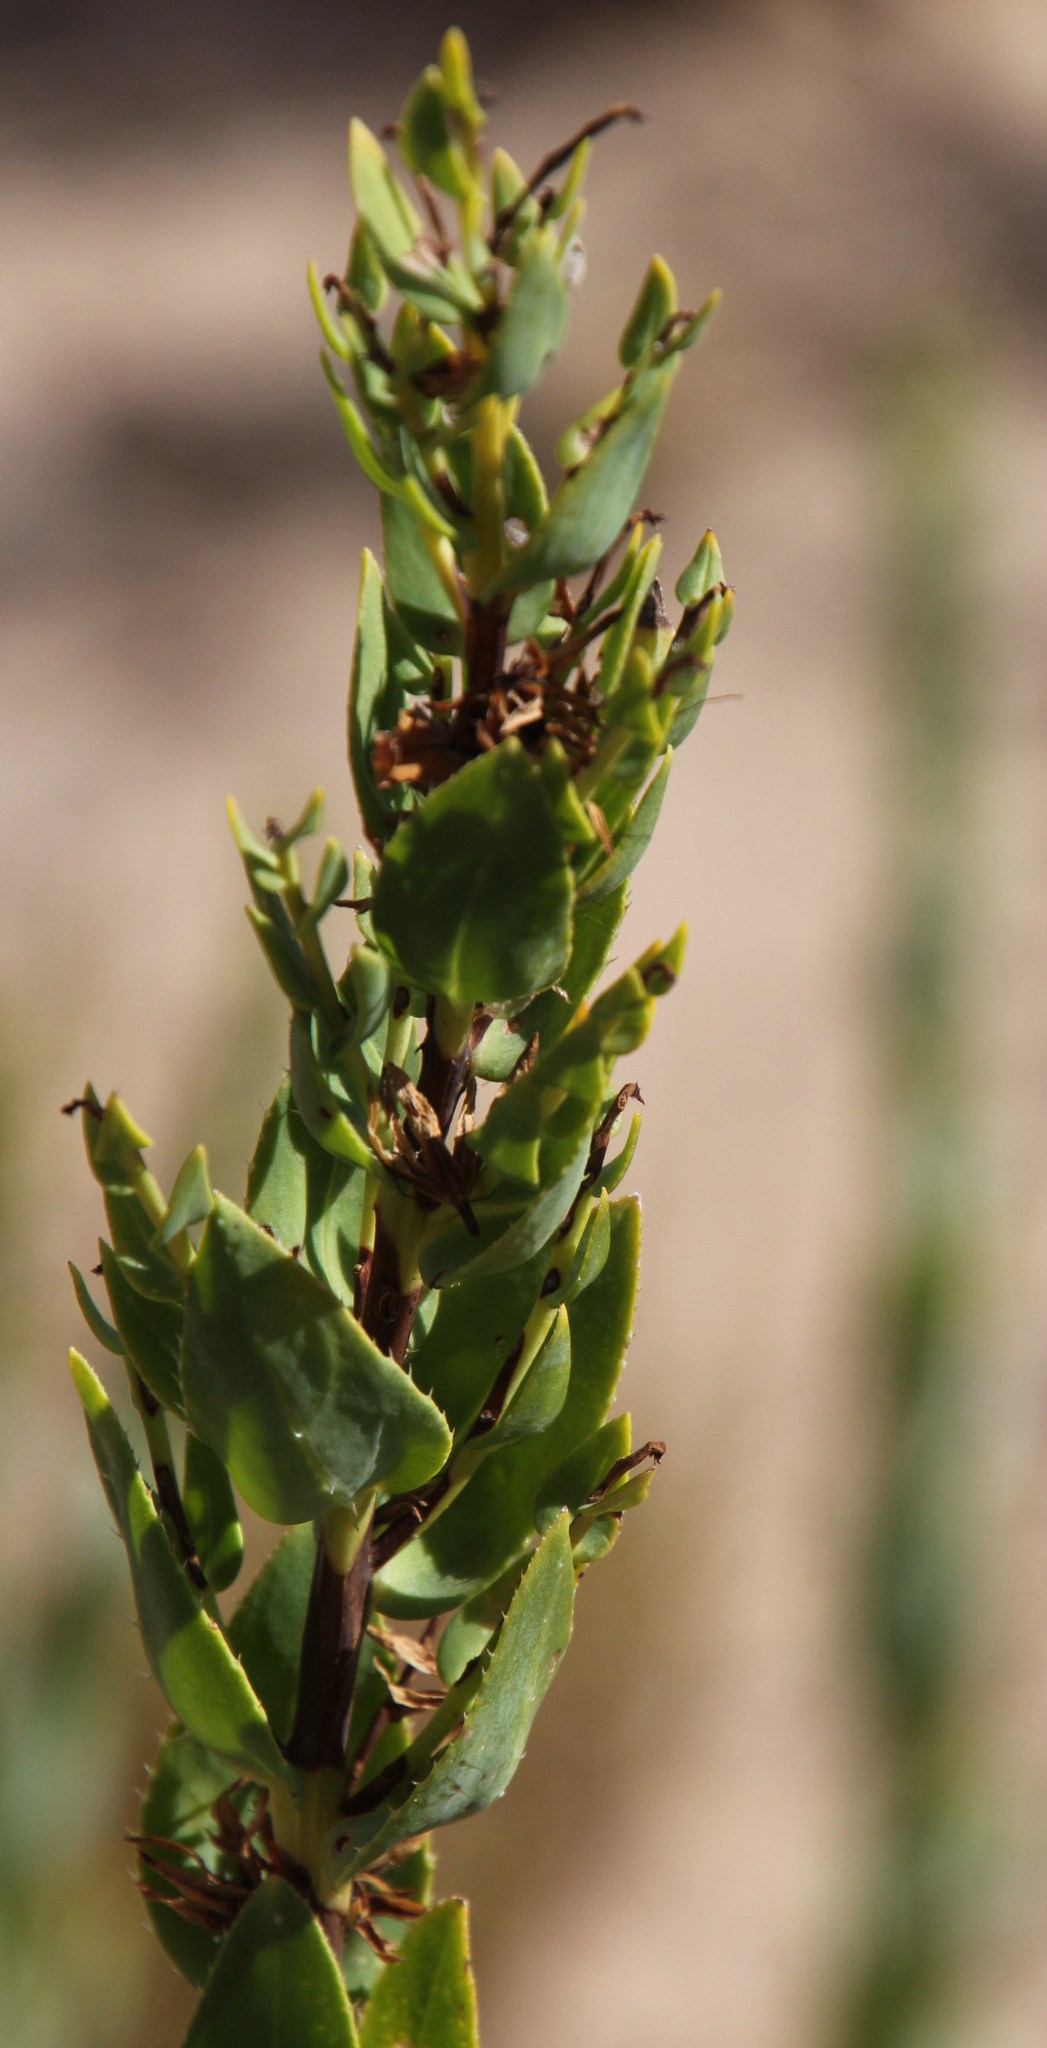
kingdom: Plantae
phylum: Tracheophyta
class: Magnoliopsida
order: Boraginales
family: Boraginaceae
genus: Lobostemon
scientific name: Lobostemon glaucophyllus
